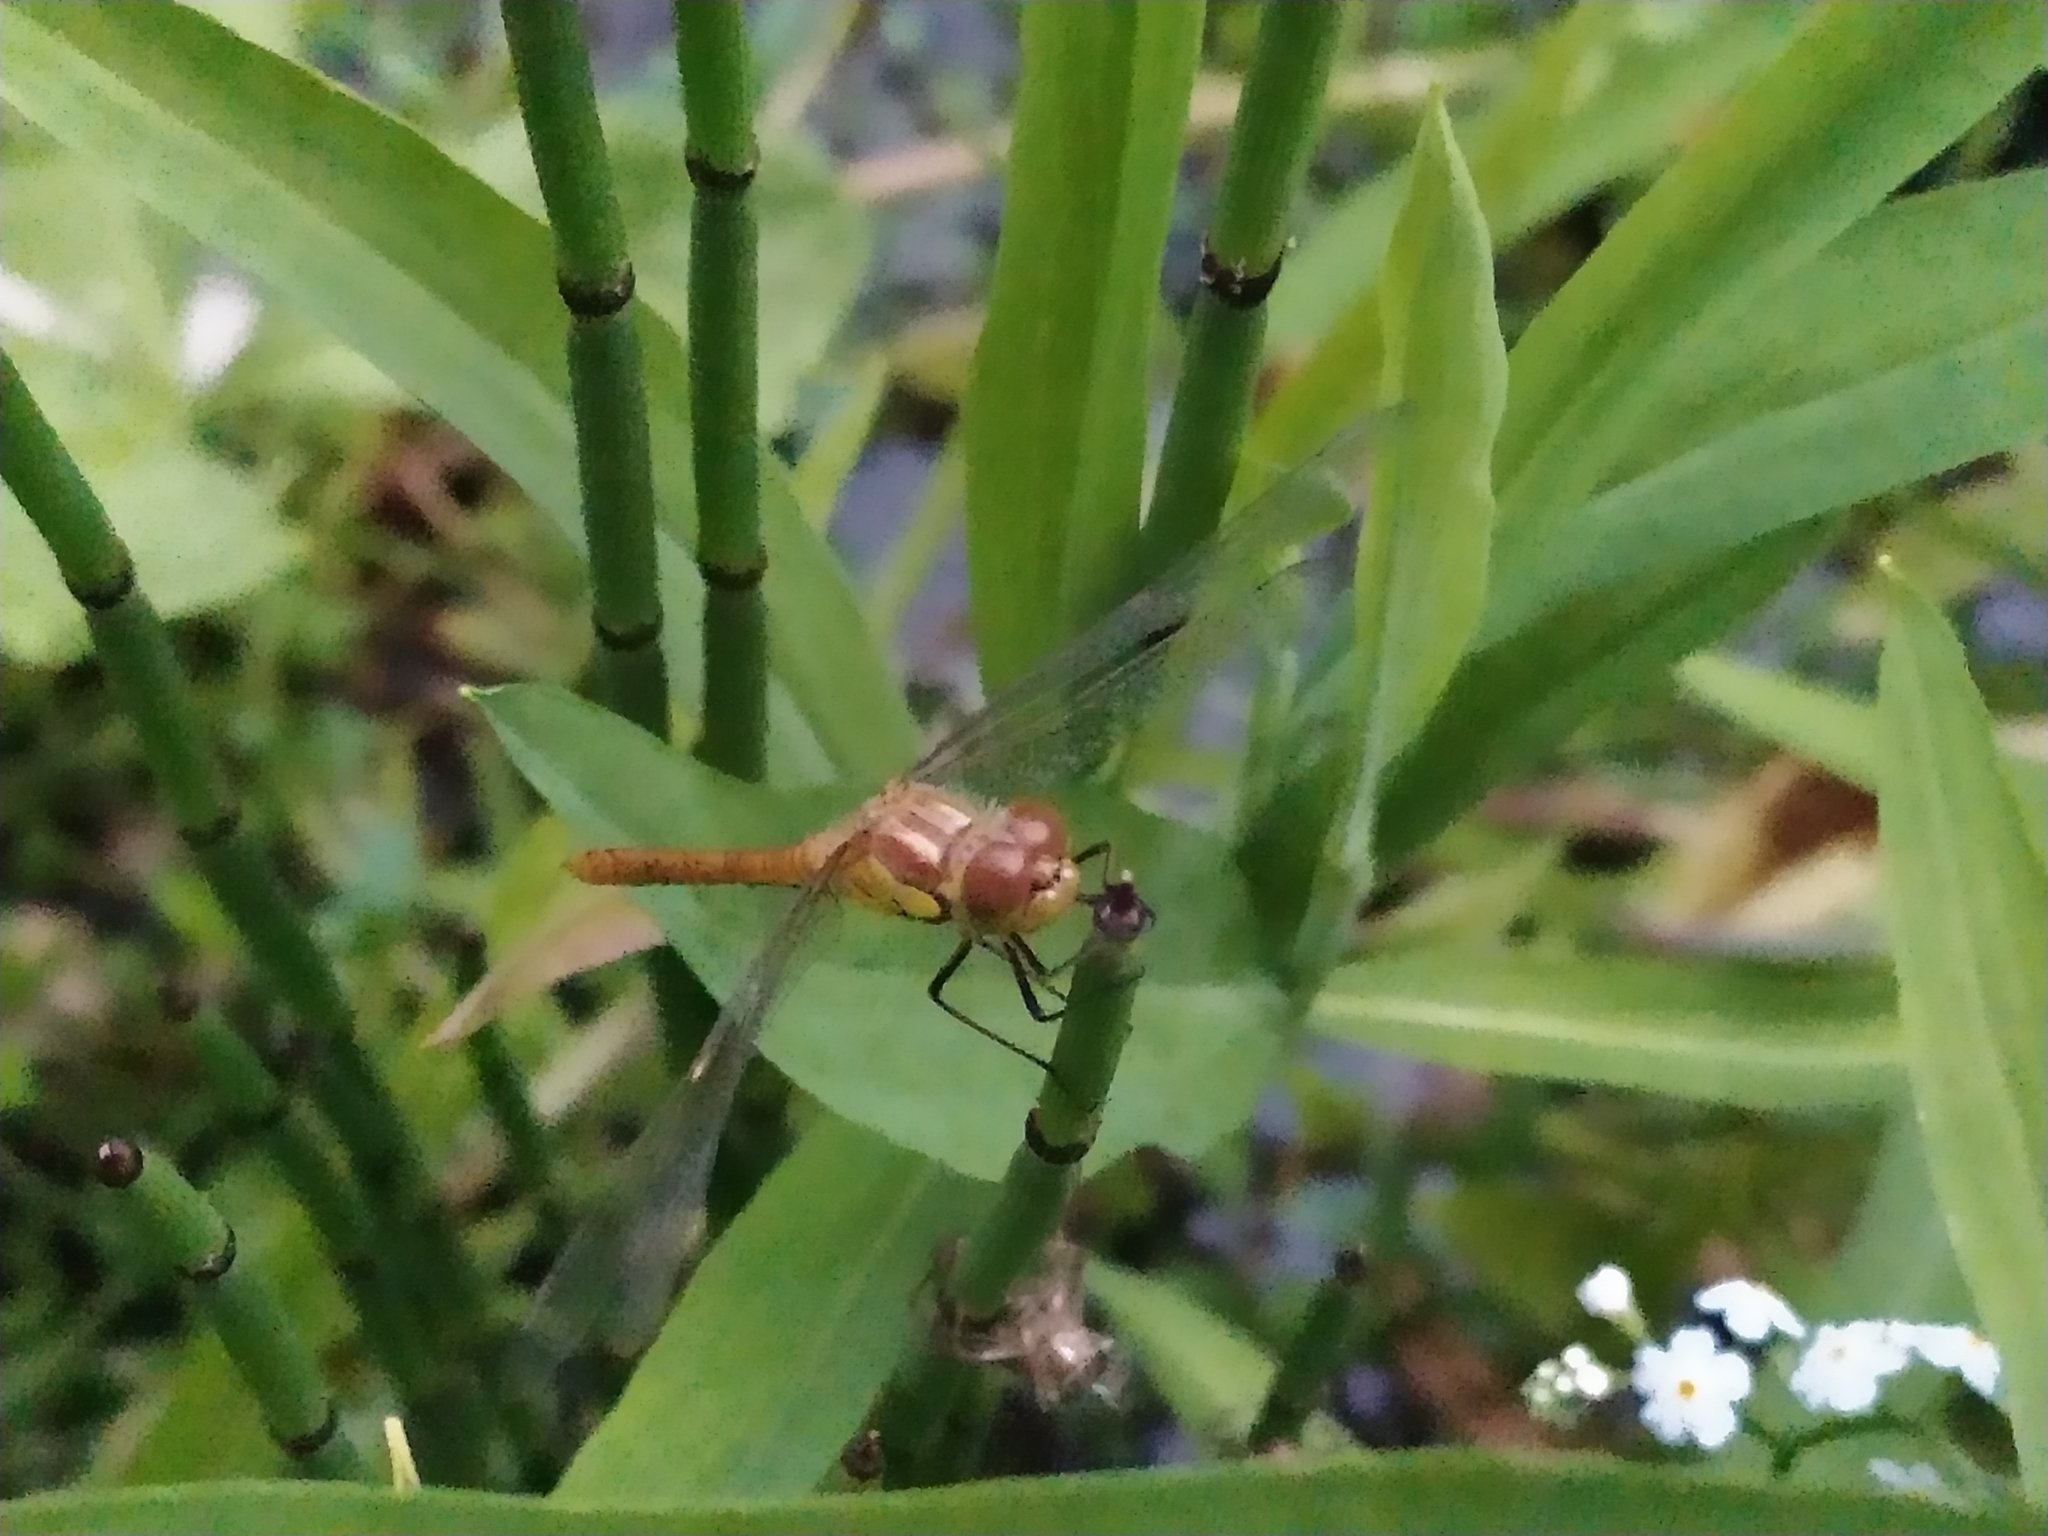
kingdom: Animalia
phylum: Arthropoda
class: Insecta
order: Odonata
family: Libellulidae
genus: Sympetrum
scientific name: Sympetrum striolatum
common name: Common darter
